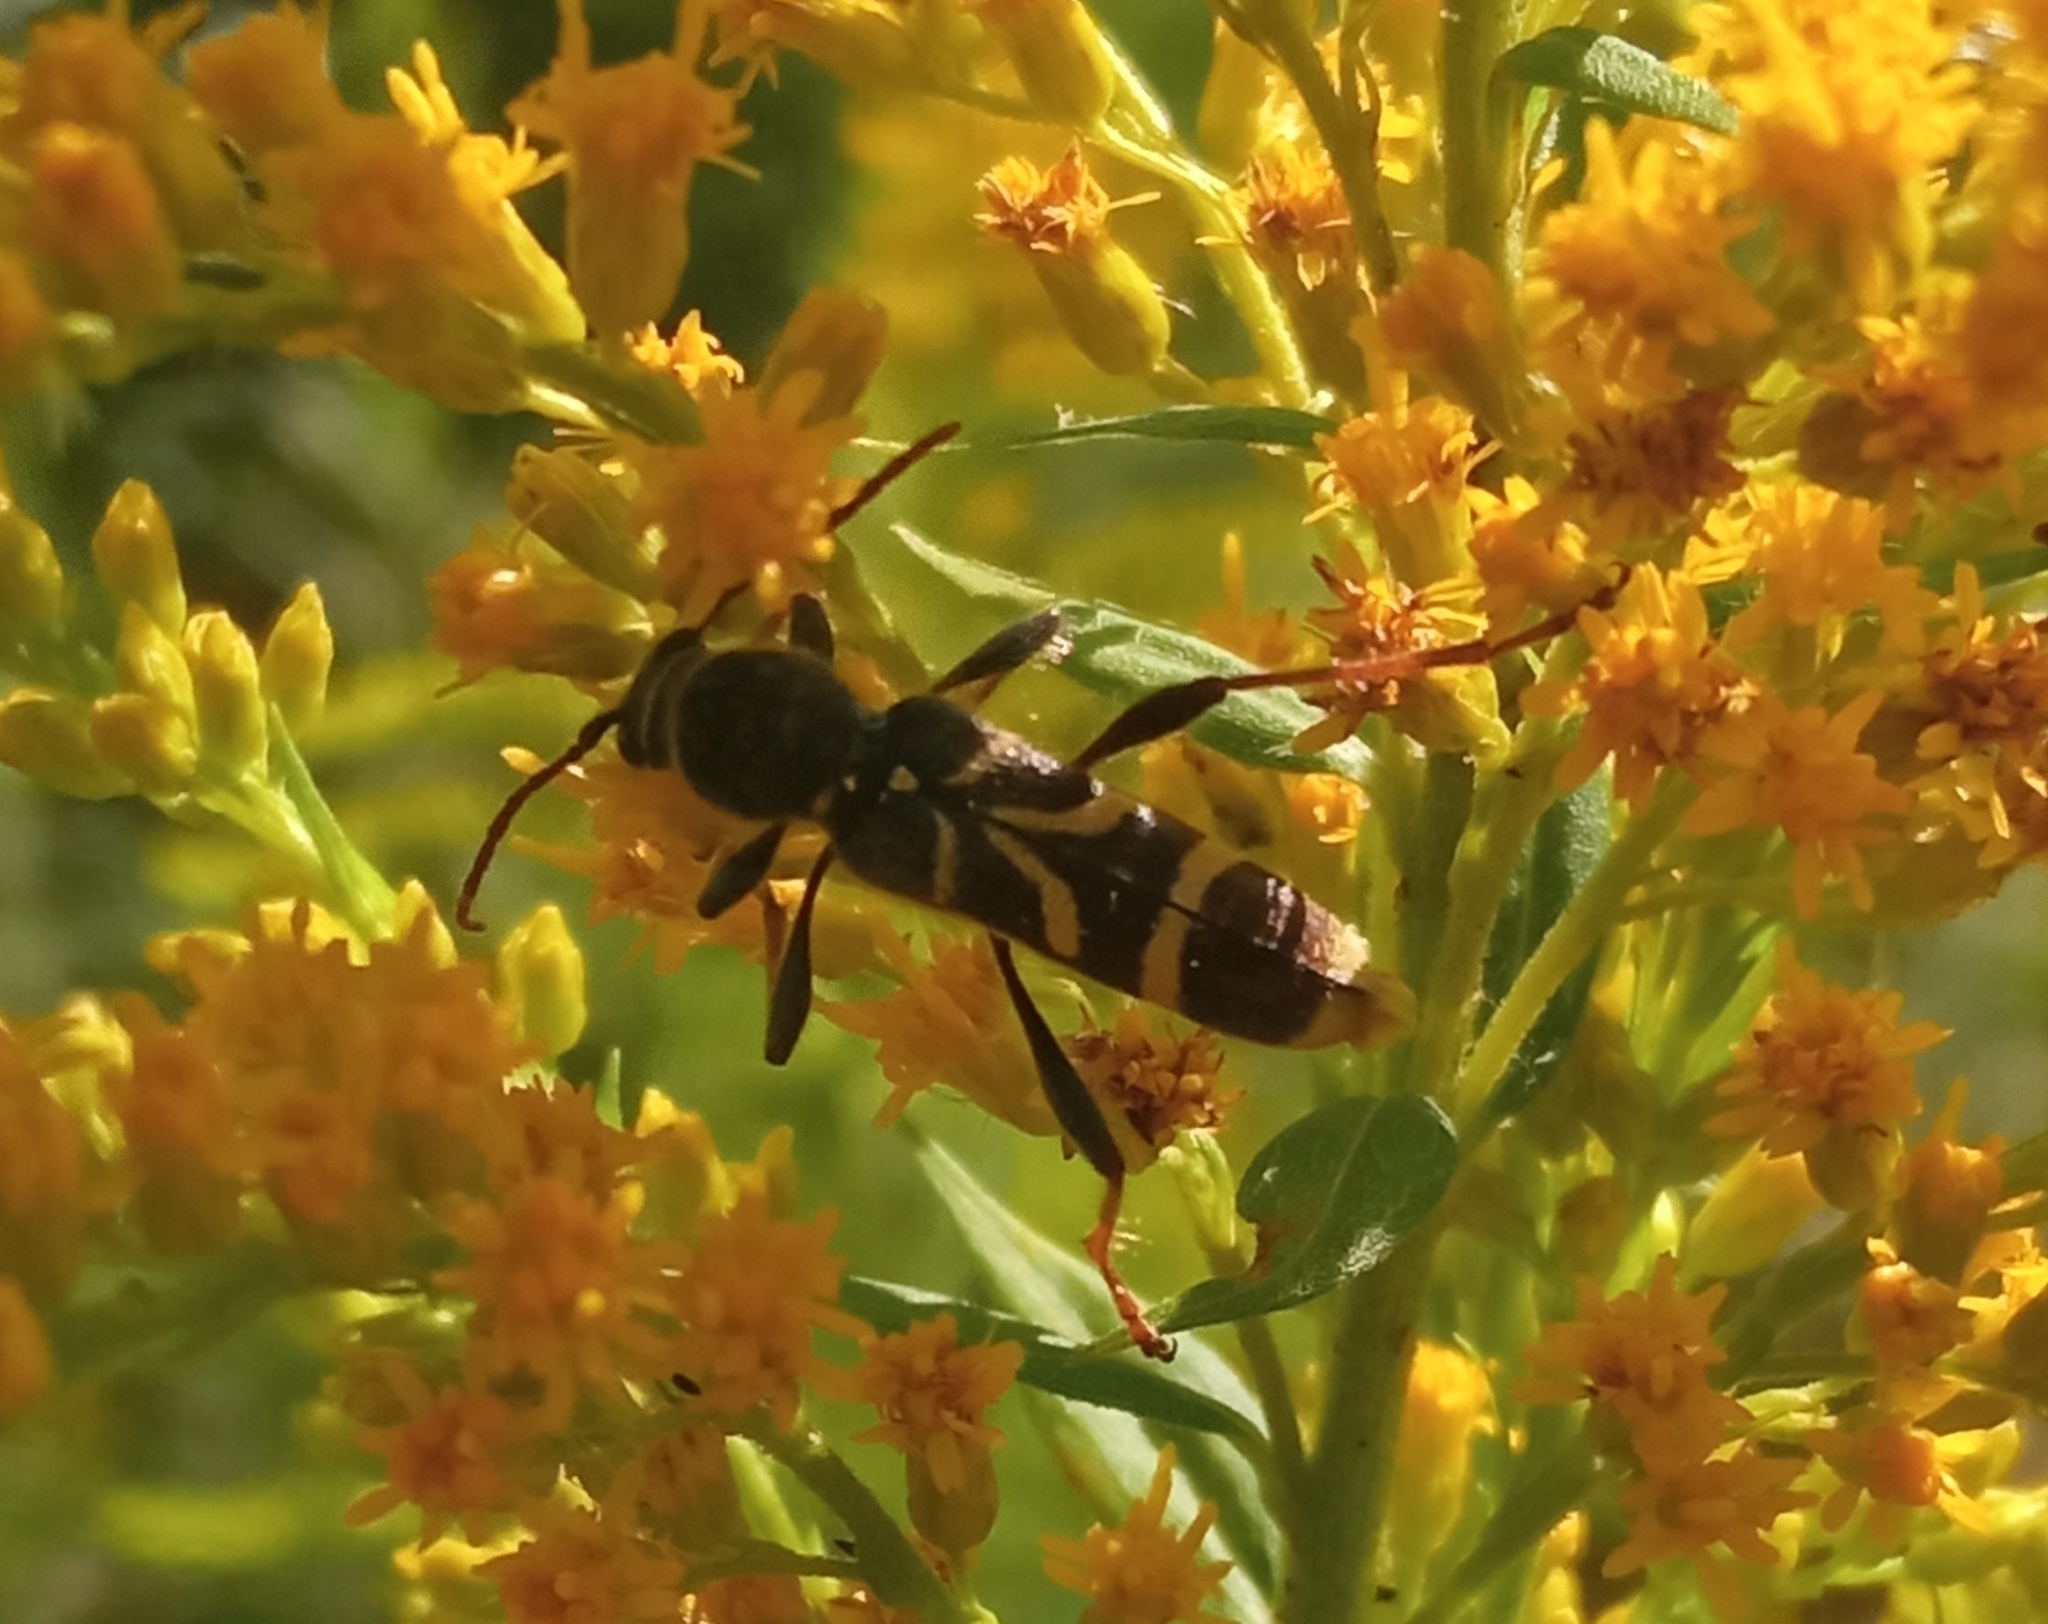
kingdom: Animalia
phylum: Arthropoda
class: Insecta
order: Coleoptera
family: Cerambycidae
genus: Cyrtoclytus
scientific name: Cyrtoclytus capra
